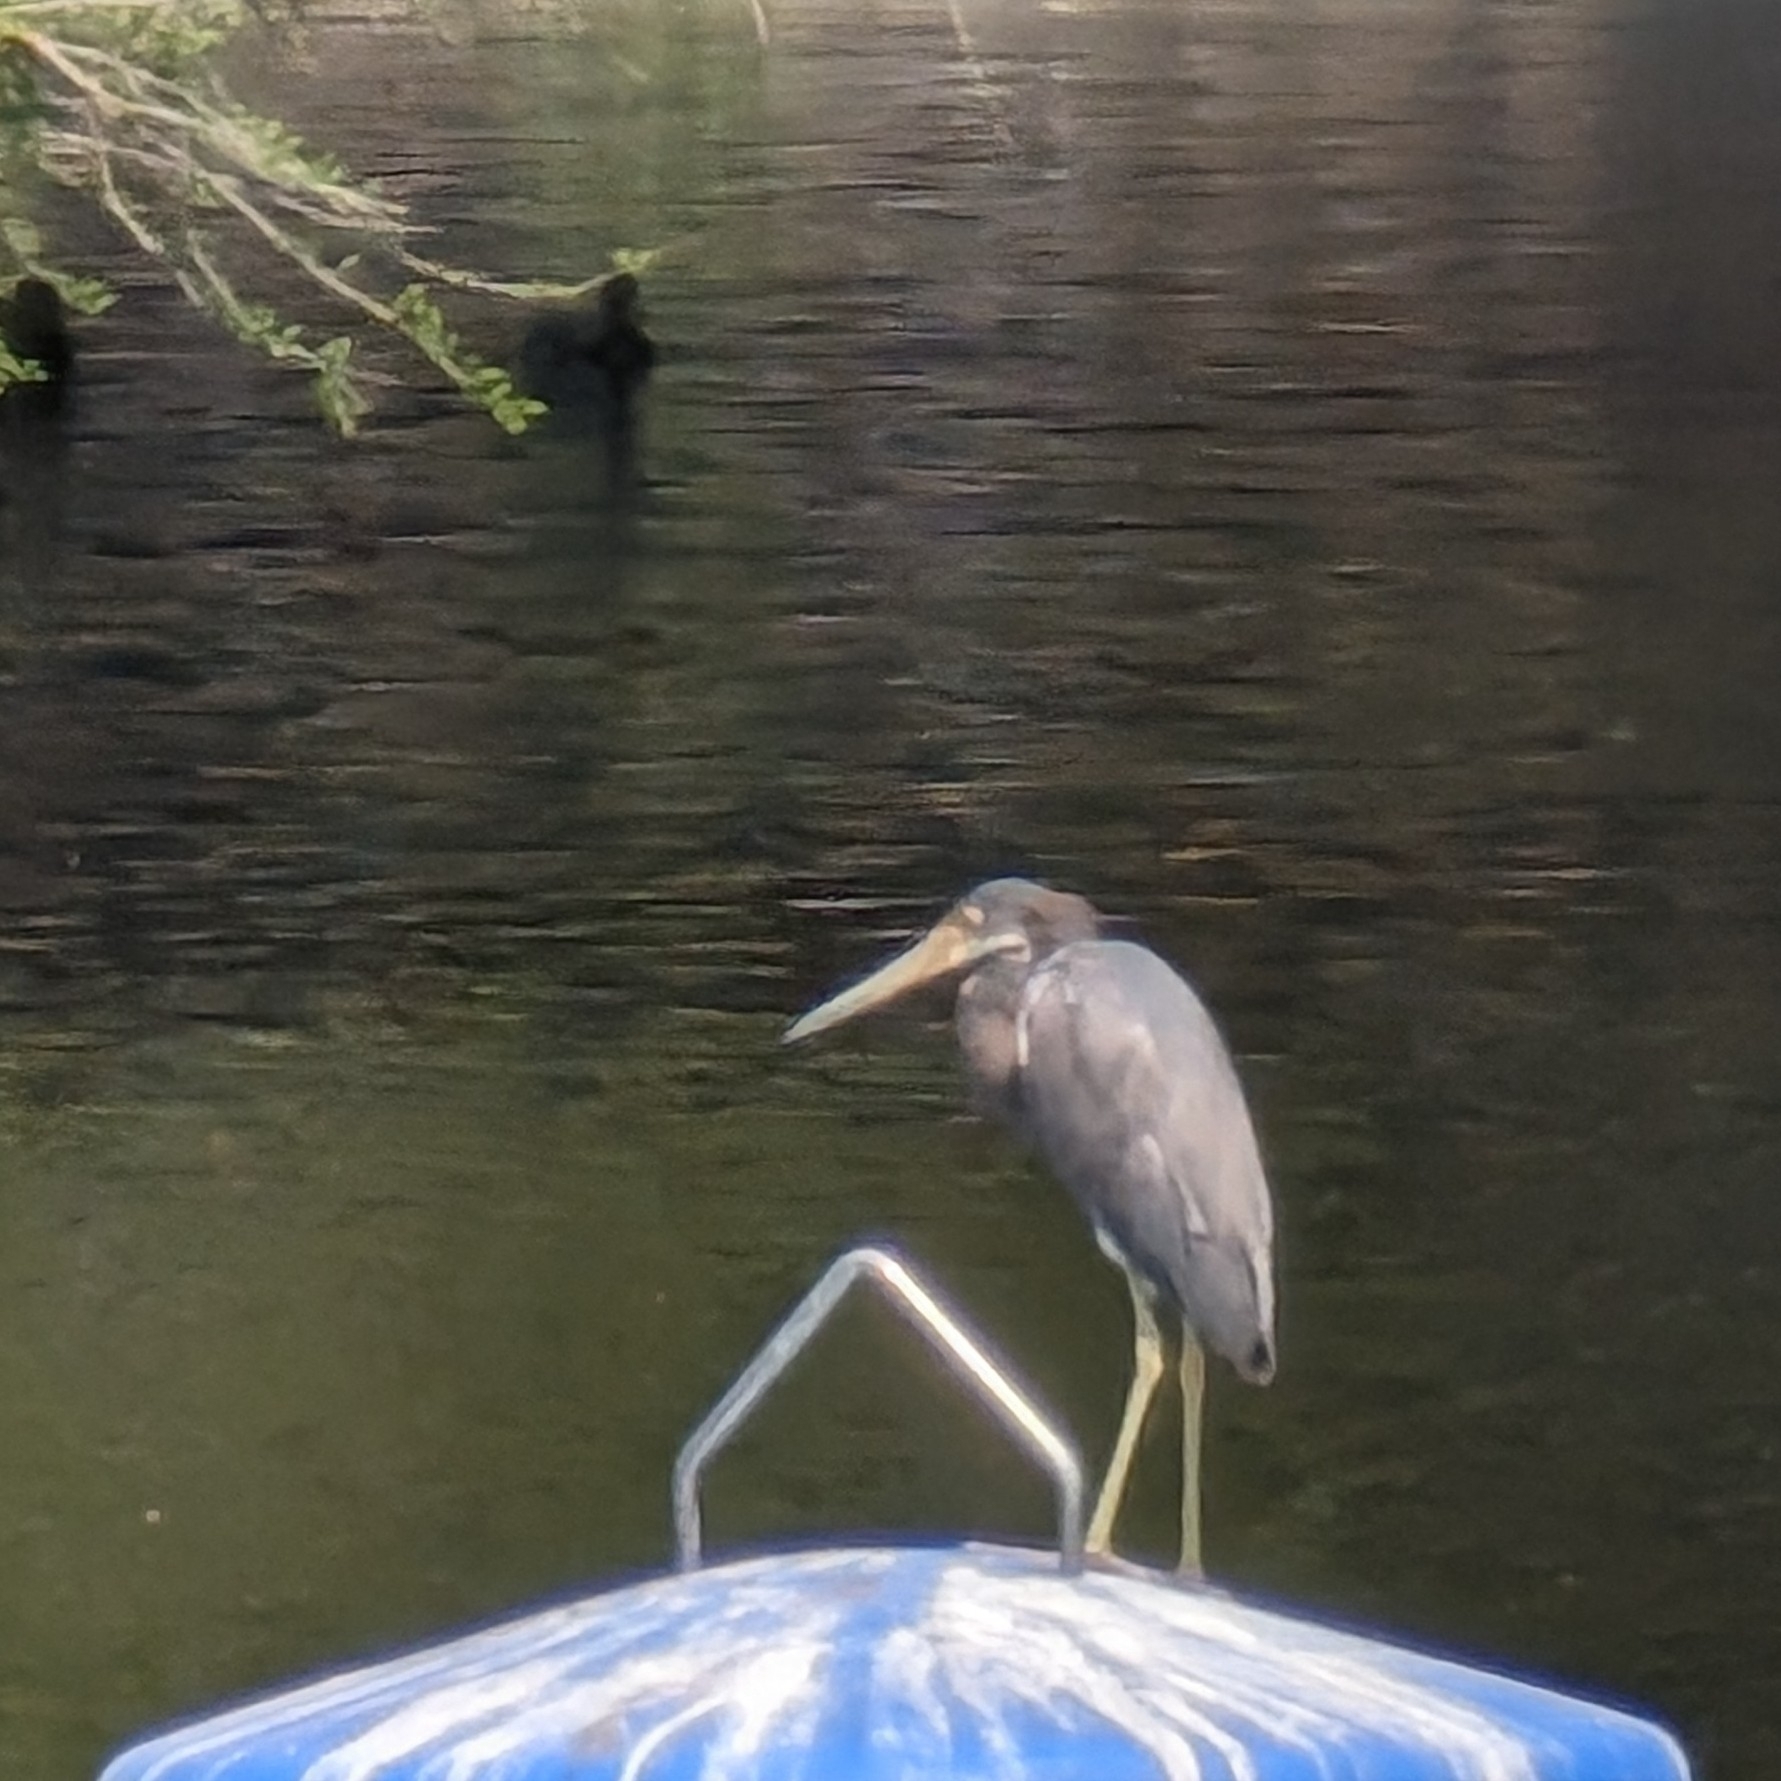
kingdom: Animalia
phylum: Chordata
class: Aves
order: Pelecaniformes
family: Ardeidae
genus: Egretta
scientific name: Egretta tricolor
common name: Tricolored heron
